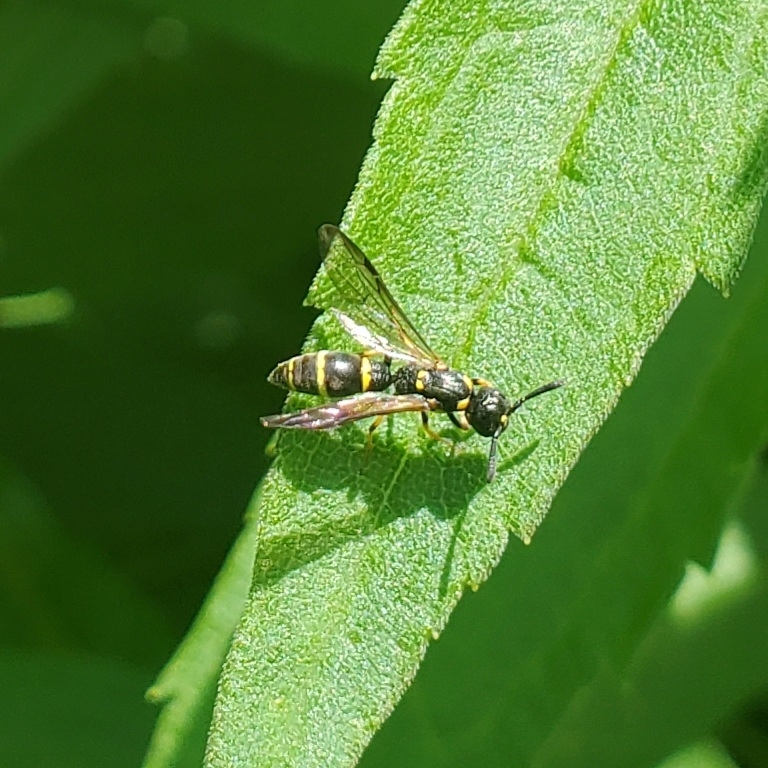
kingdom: Animalia
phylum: Arthropoda
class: Insecta
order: Hymenoptera
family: Eumenidae
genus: Symmorphus
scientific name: Symmorphus
